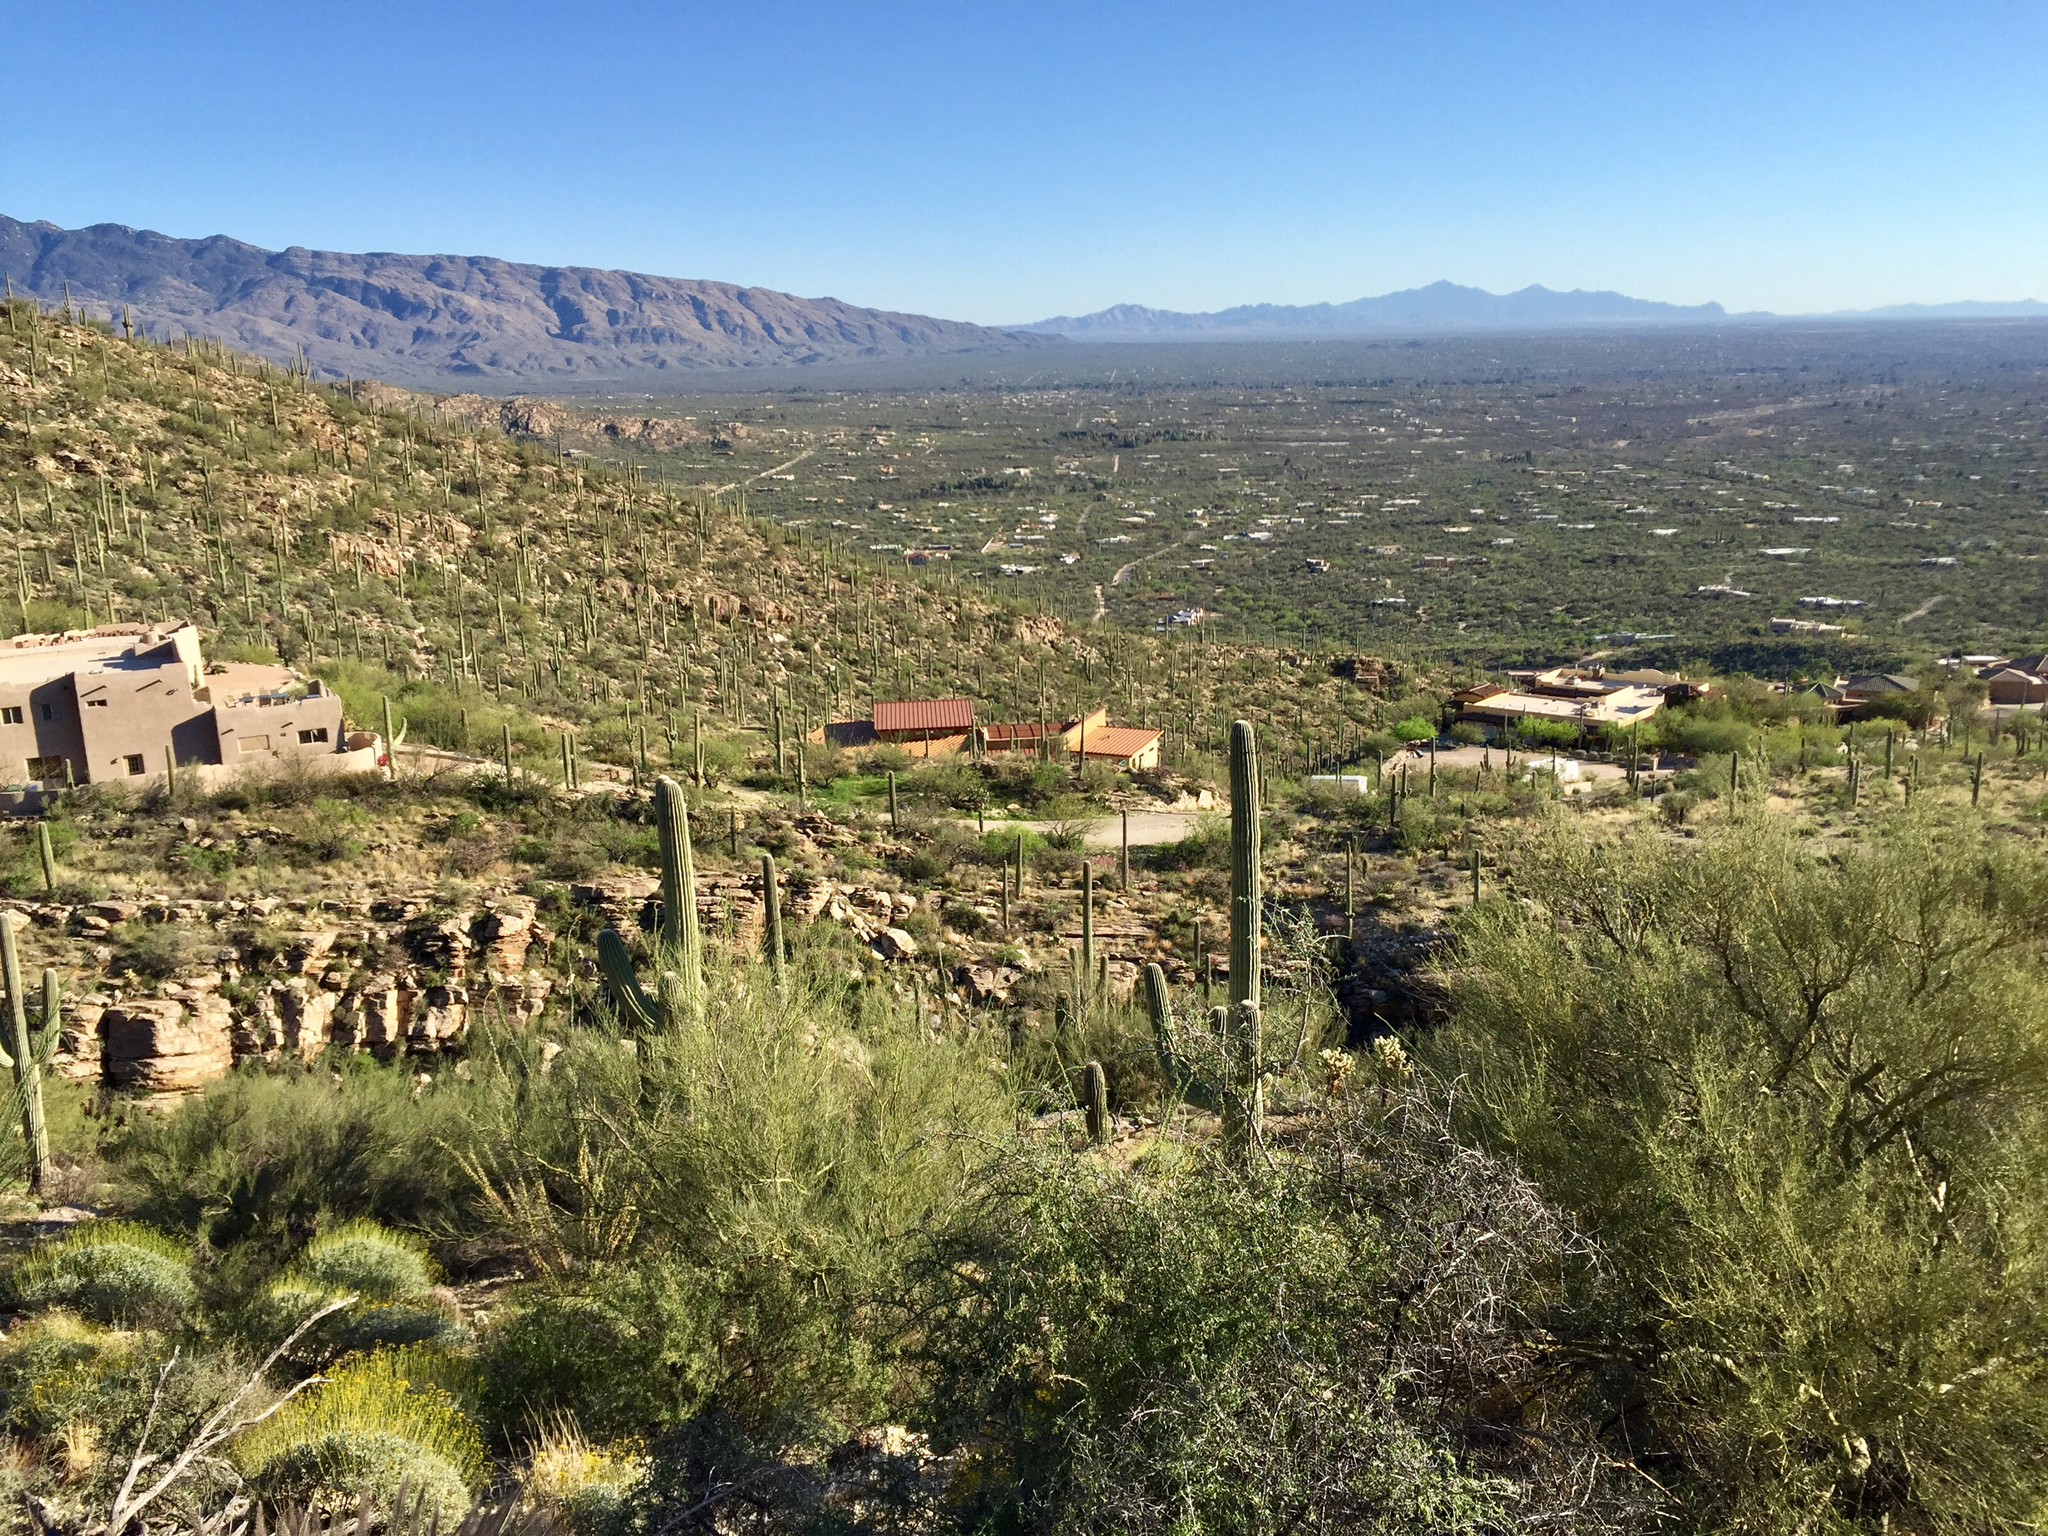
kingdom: Plantae
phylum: Tracheophyta
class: Magnoliopsida
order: Fabales
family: Fabaceae
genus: Parkinsonia
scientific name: Parkinsonia microphylla
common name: Yellow paloverde
